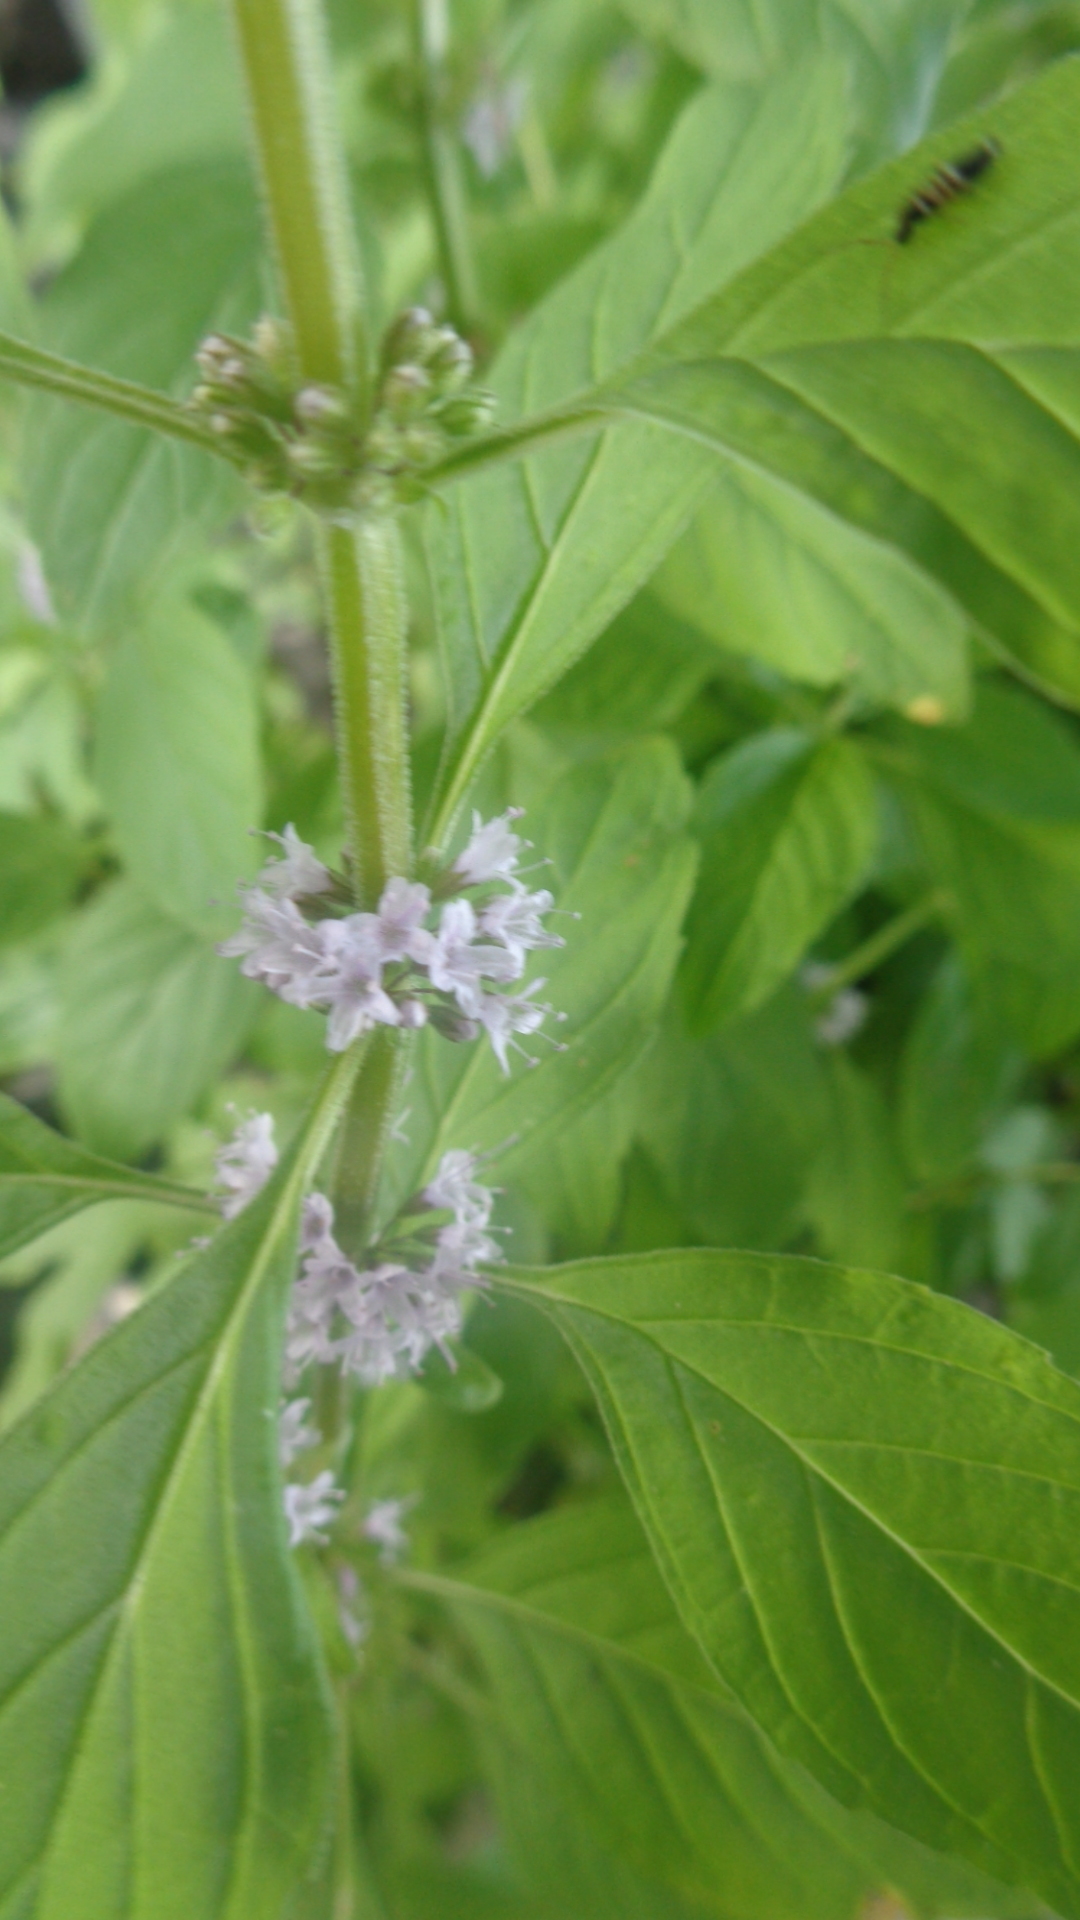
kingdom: Plantae
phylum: Tracheophyta
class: Magnoliopsida
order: Lamiales
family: Lamiaceae
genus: Mentha
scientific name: Mentha arvensis
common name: Corn mint
